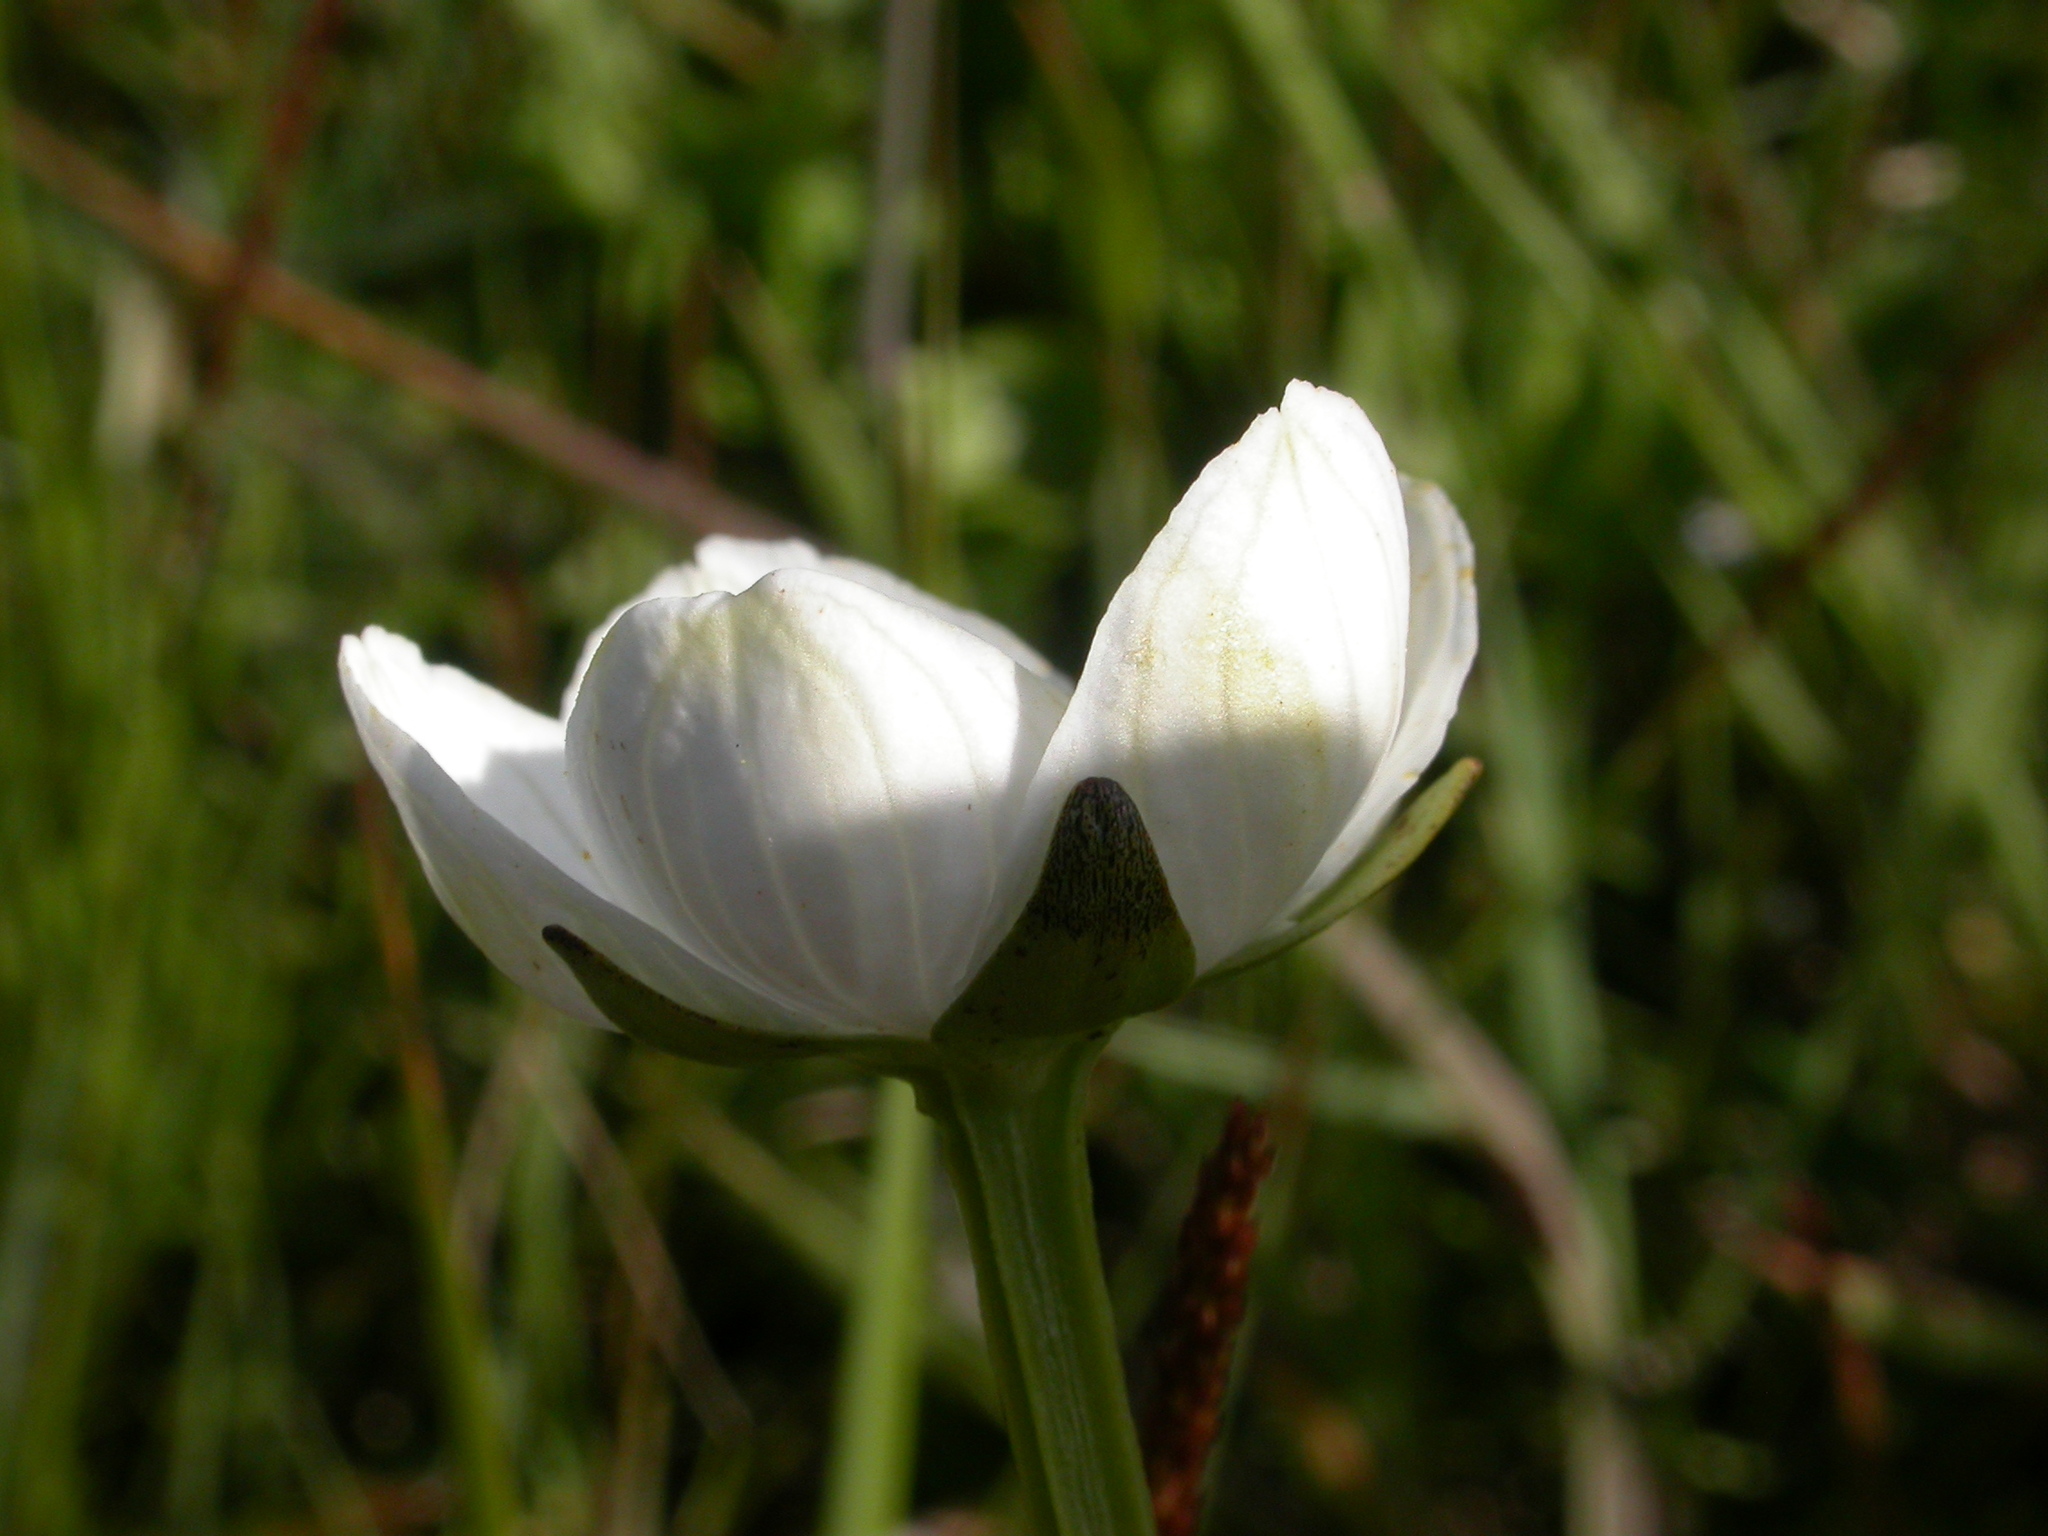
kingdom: Plantae
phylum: Tracheophyta
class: Magnoliopsida
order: Celastrales
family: Parnassiaceae
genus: Parnassia
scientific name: Parnassia palustris
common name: Grass-of-parnassus
